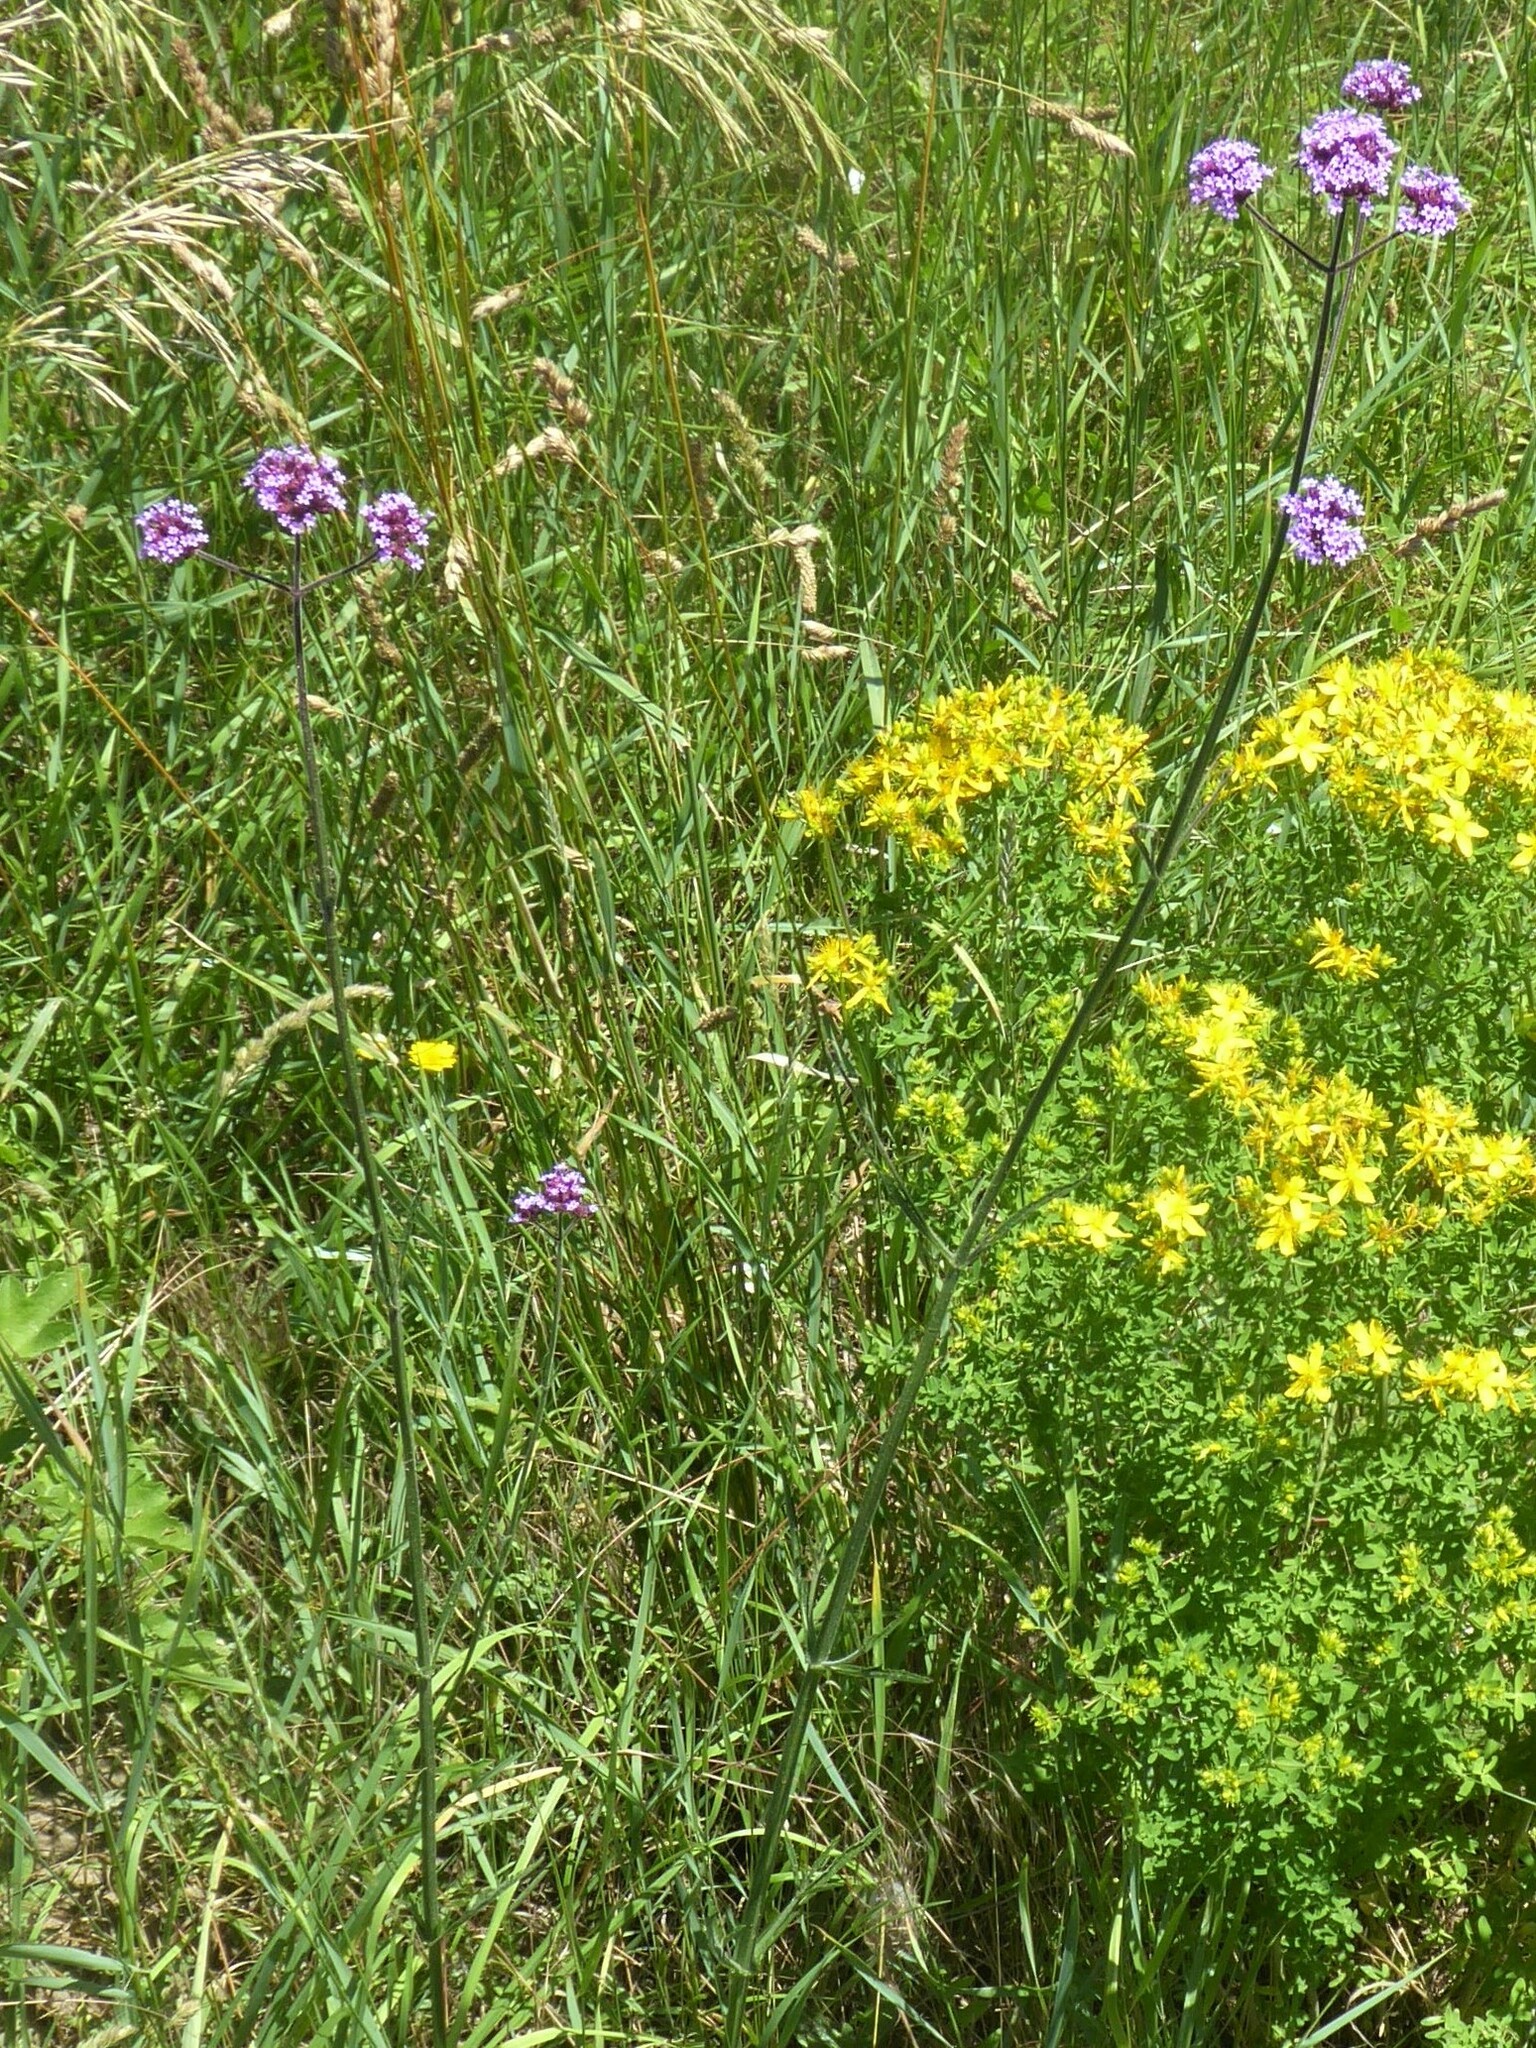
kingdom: Plantae
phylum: Tracheophyta
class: Magnoliopsida
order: Lamiales
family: Verbenaceae
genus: Verbena
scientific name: Verbena bonariensis
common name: Purpletop vervain
